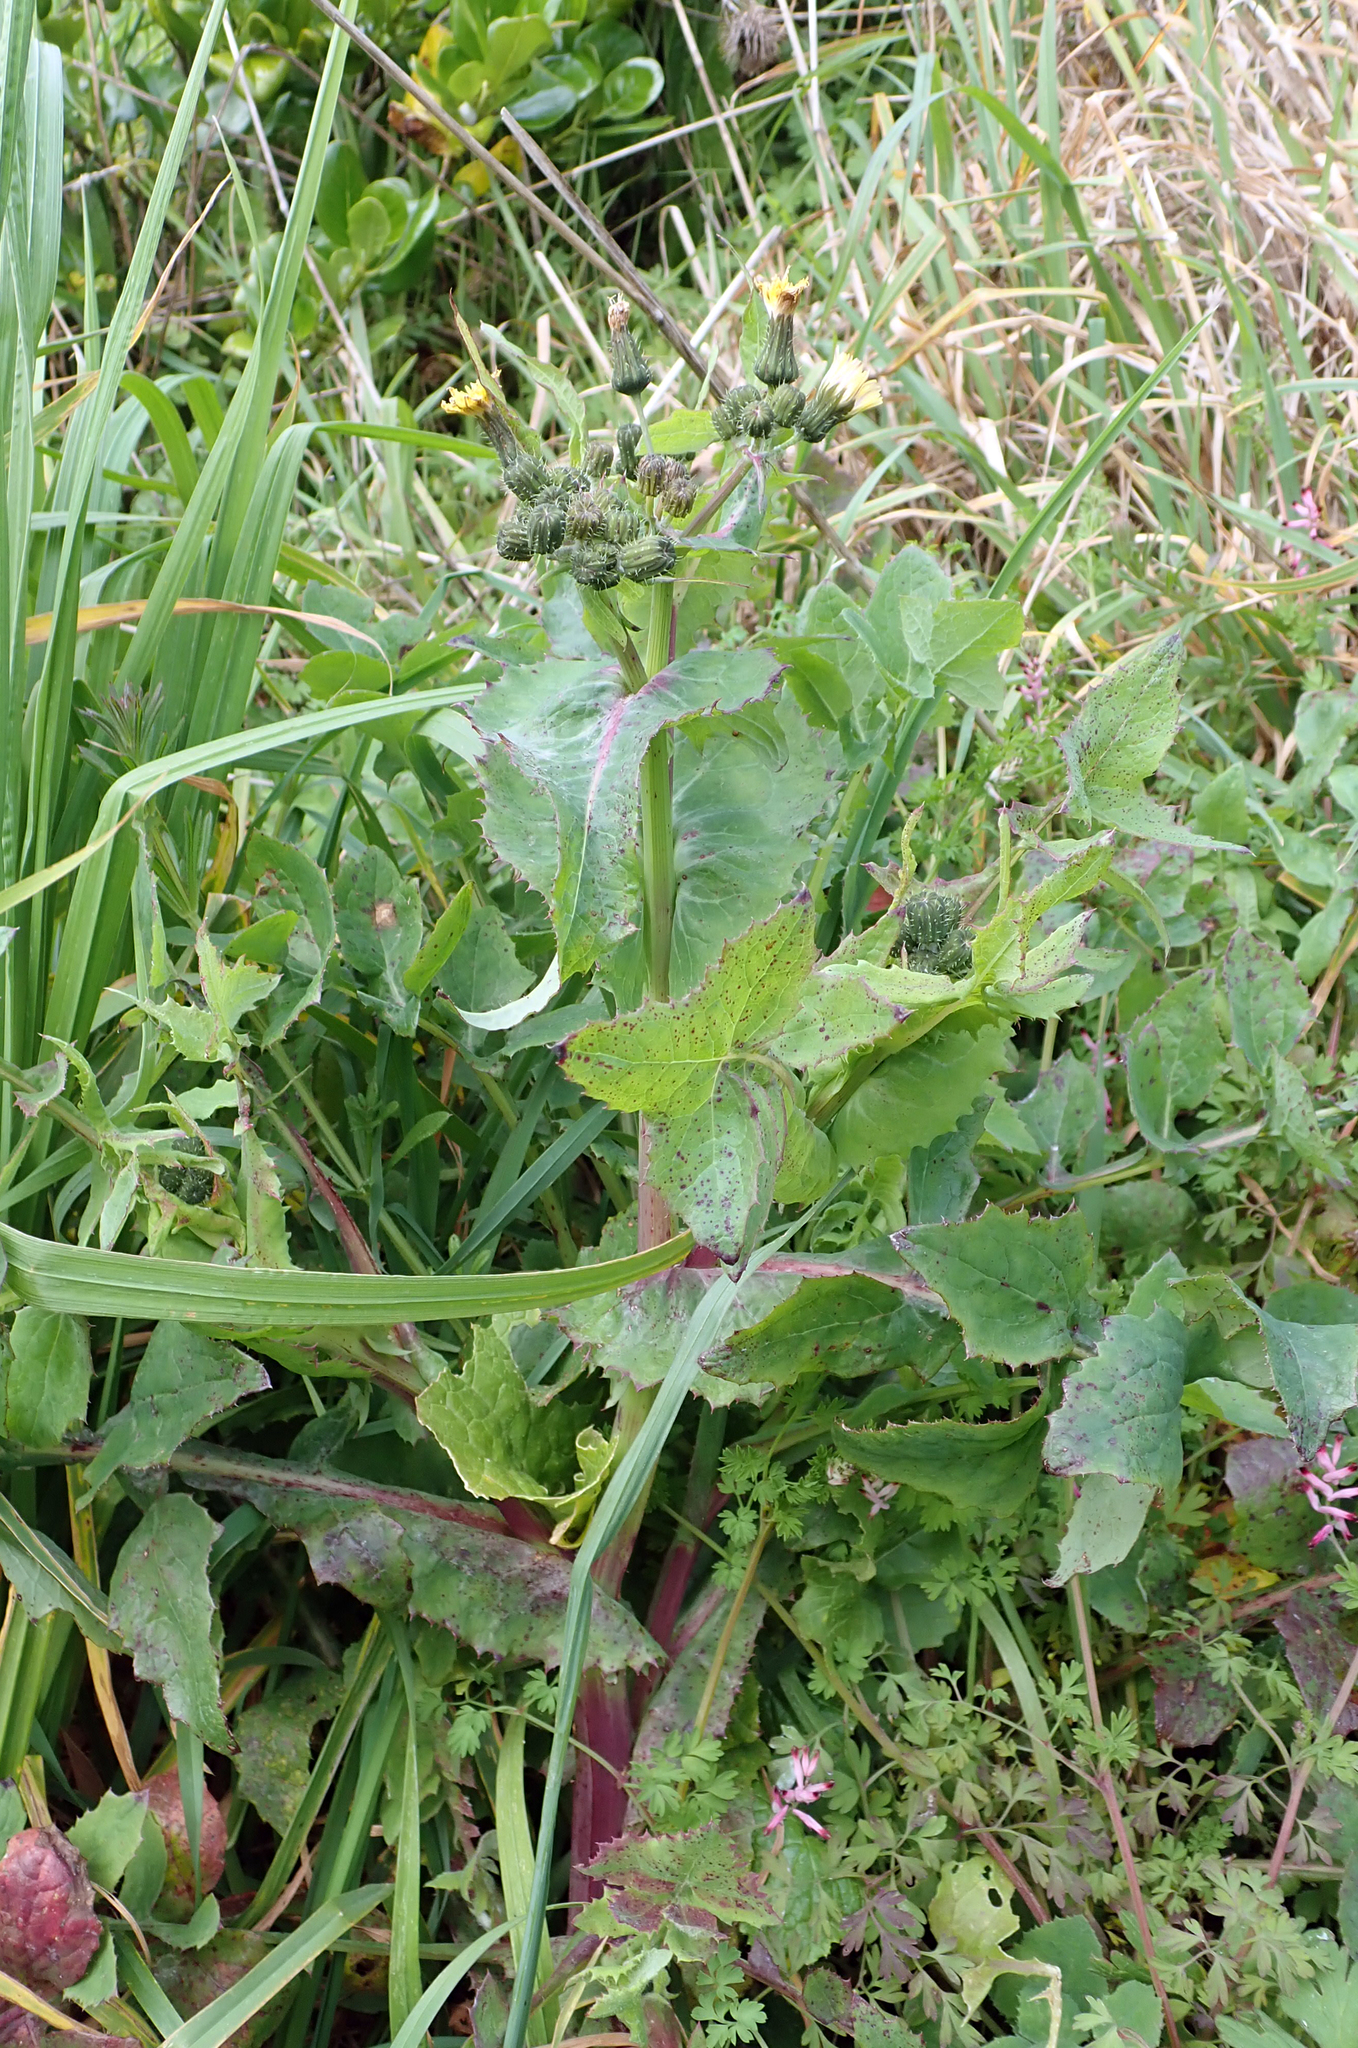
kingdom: Plantae
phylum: Tracheophyta
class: Magnoliopsida
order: Asterales
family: Asteraceae
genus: Sonchus
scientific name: Sonchus oleraceus
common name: Common sowthistle
